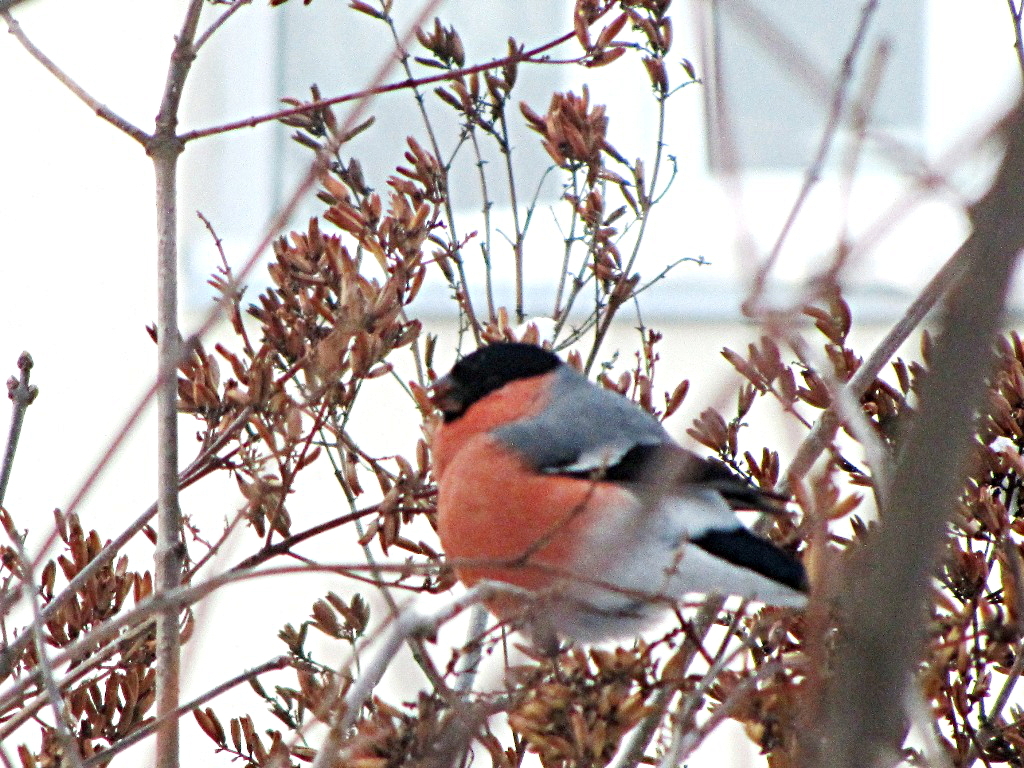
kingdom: Animalia
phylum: Chordata
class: Aves
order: Passeriformes
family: Fringillidae
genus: Pyrrhula
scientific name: Pyrrhula pyrrhula
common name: Eurasian bullfinch
